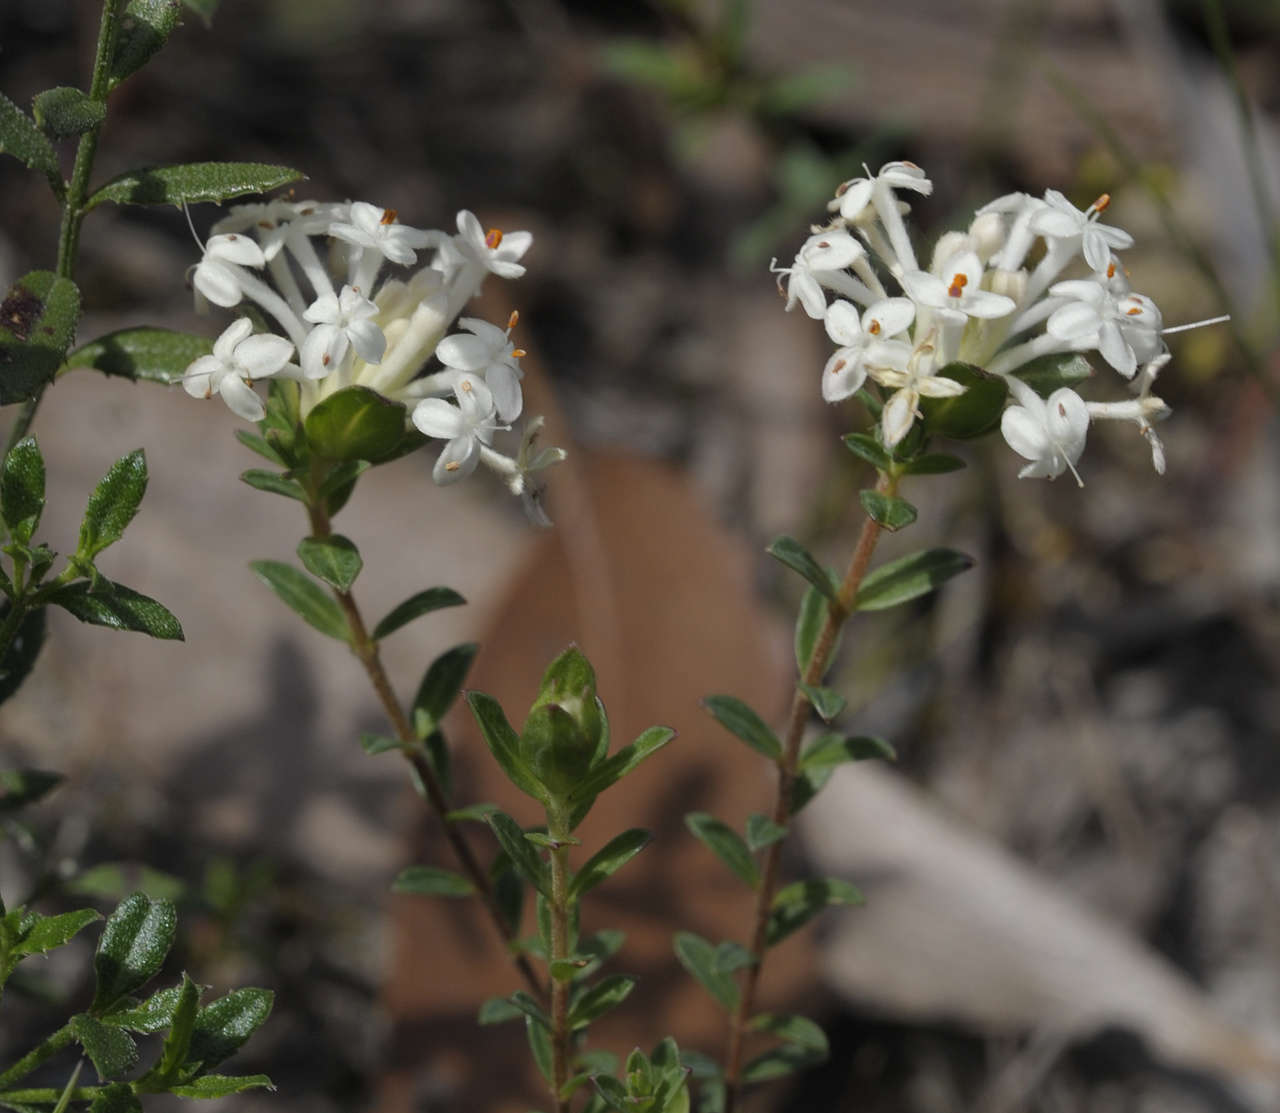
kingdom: Plantae
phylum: Tracheophyta
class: Magnoliopsida
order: Malvales
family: Thymelaeaceae
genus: Pimelea
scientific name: Pimelea humilis
